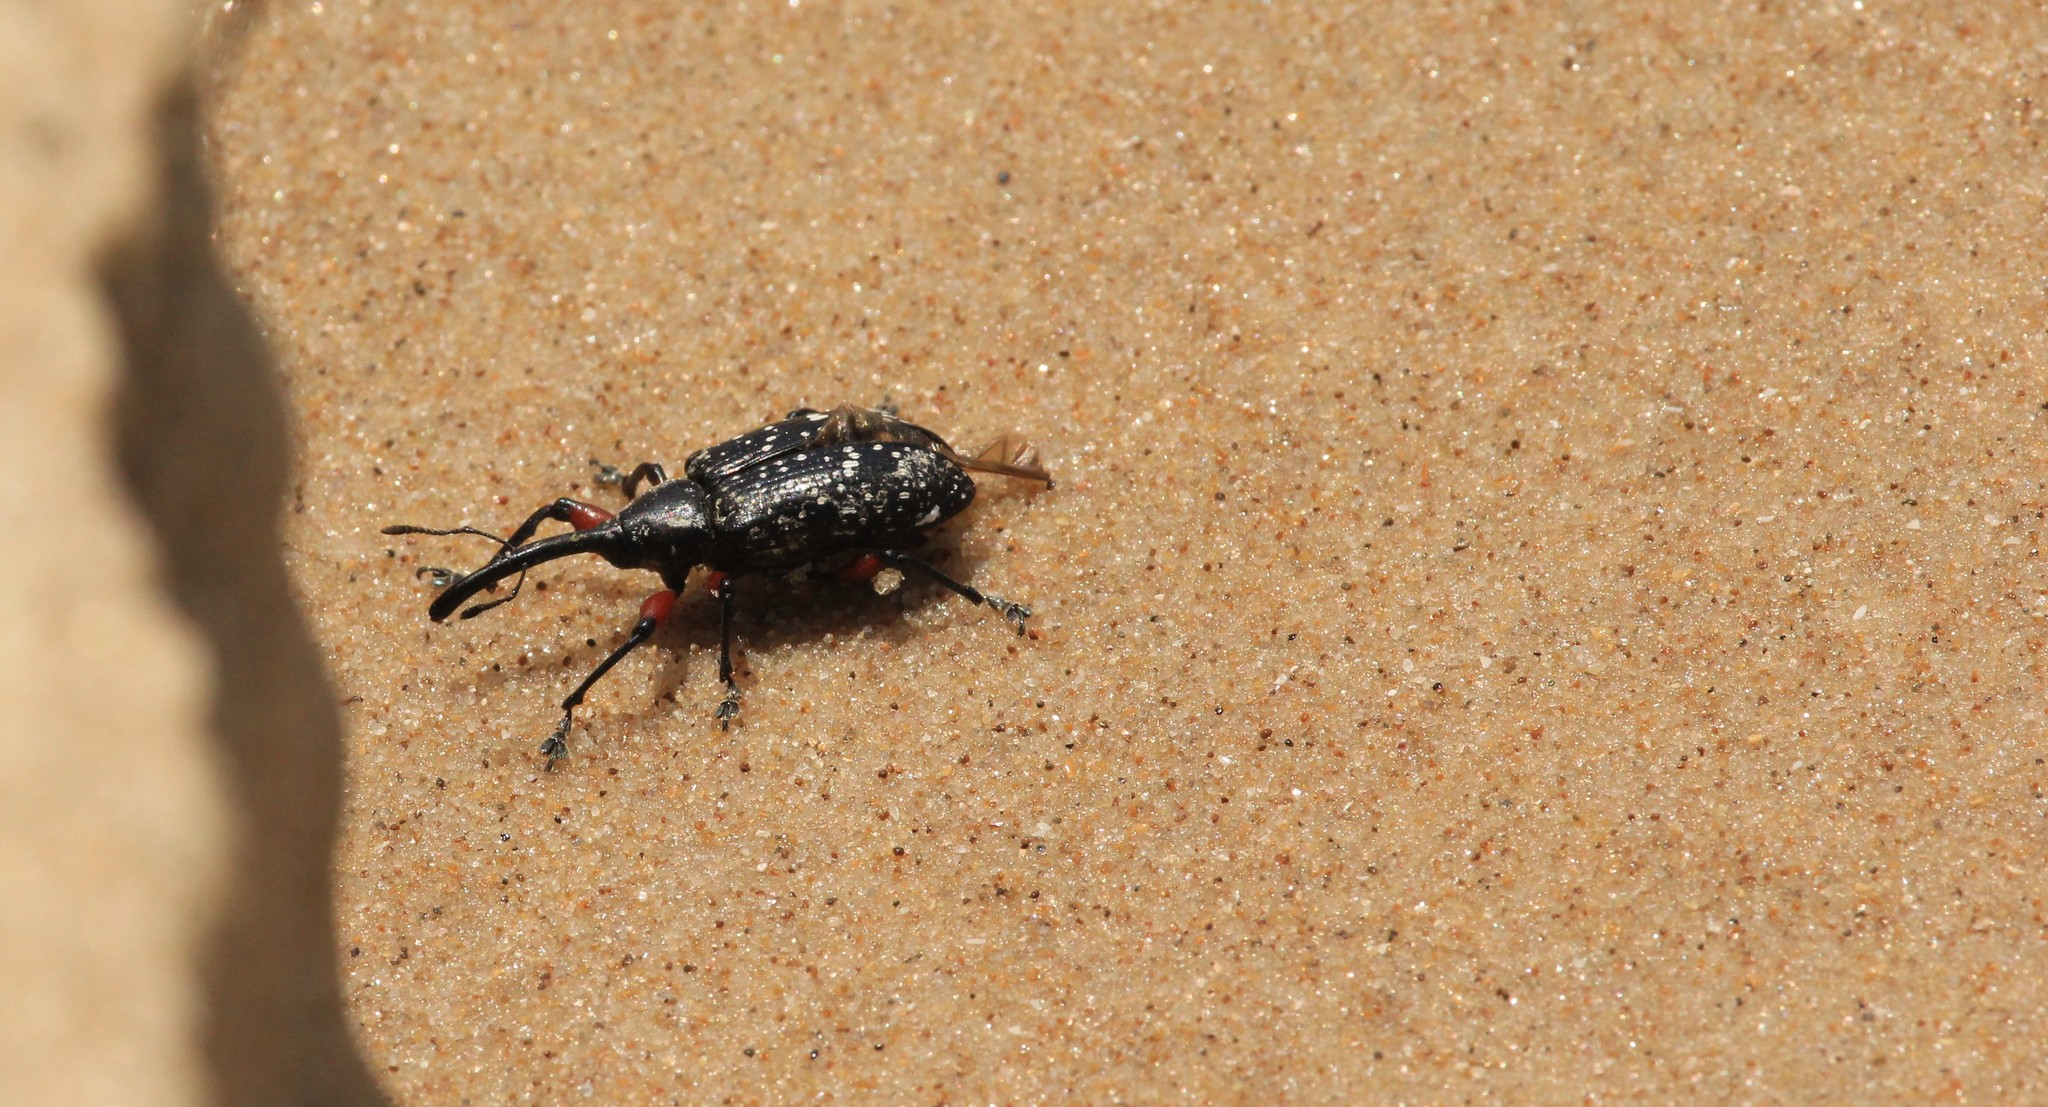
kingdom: Animalia
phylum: Arthropoda
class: Insecta
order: Coleoptera
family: Curculionidae
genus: Heilipodus
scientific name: Heilipodus erythropus
